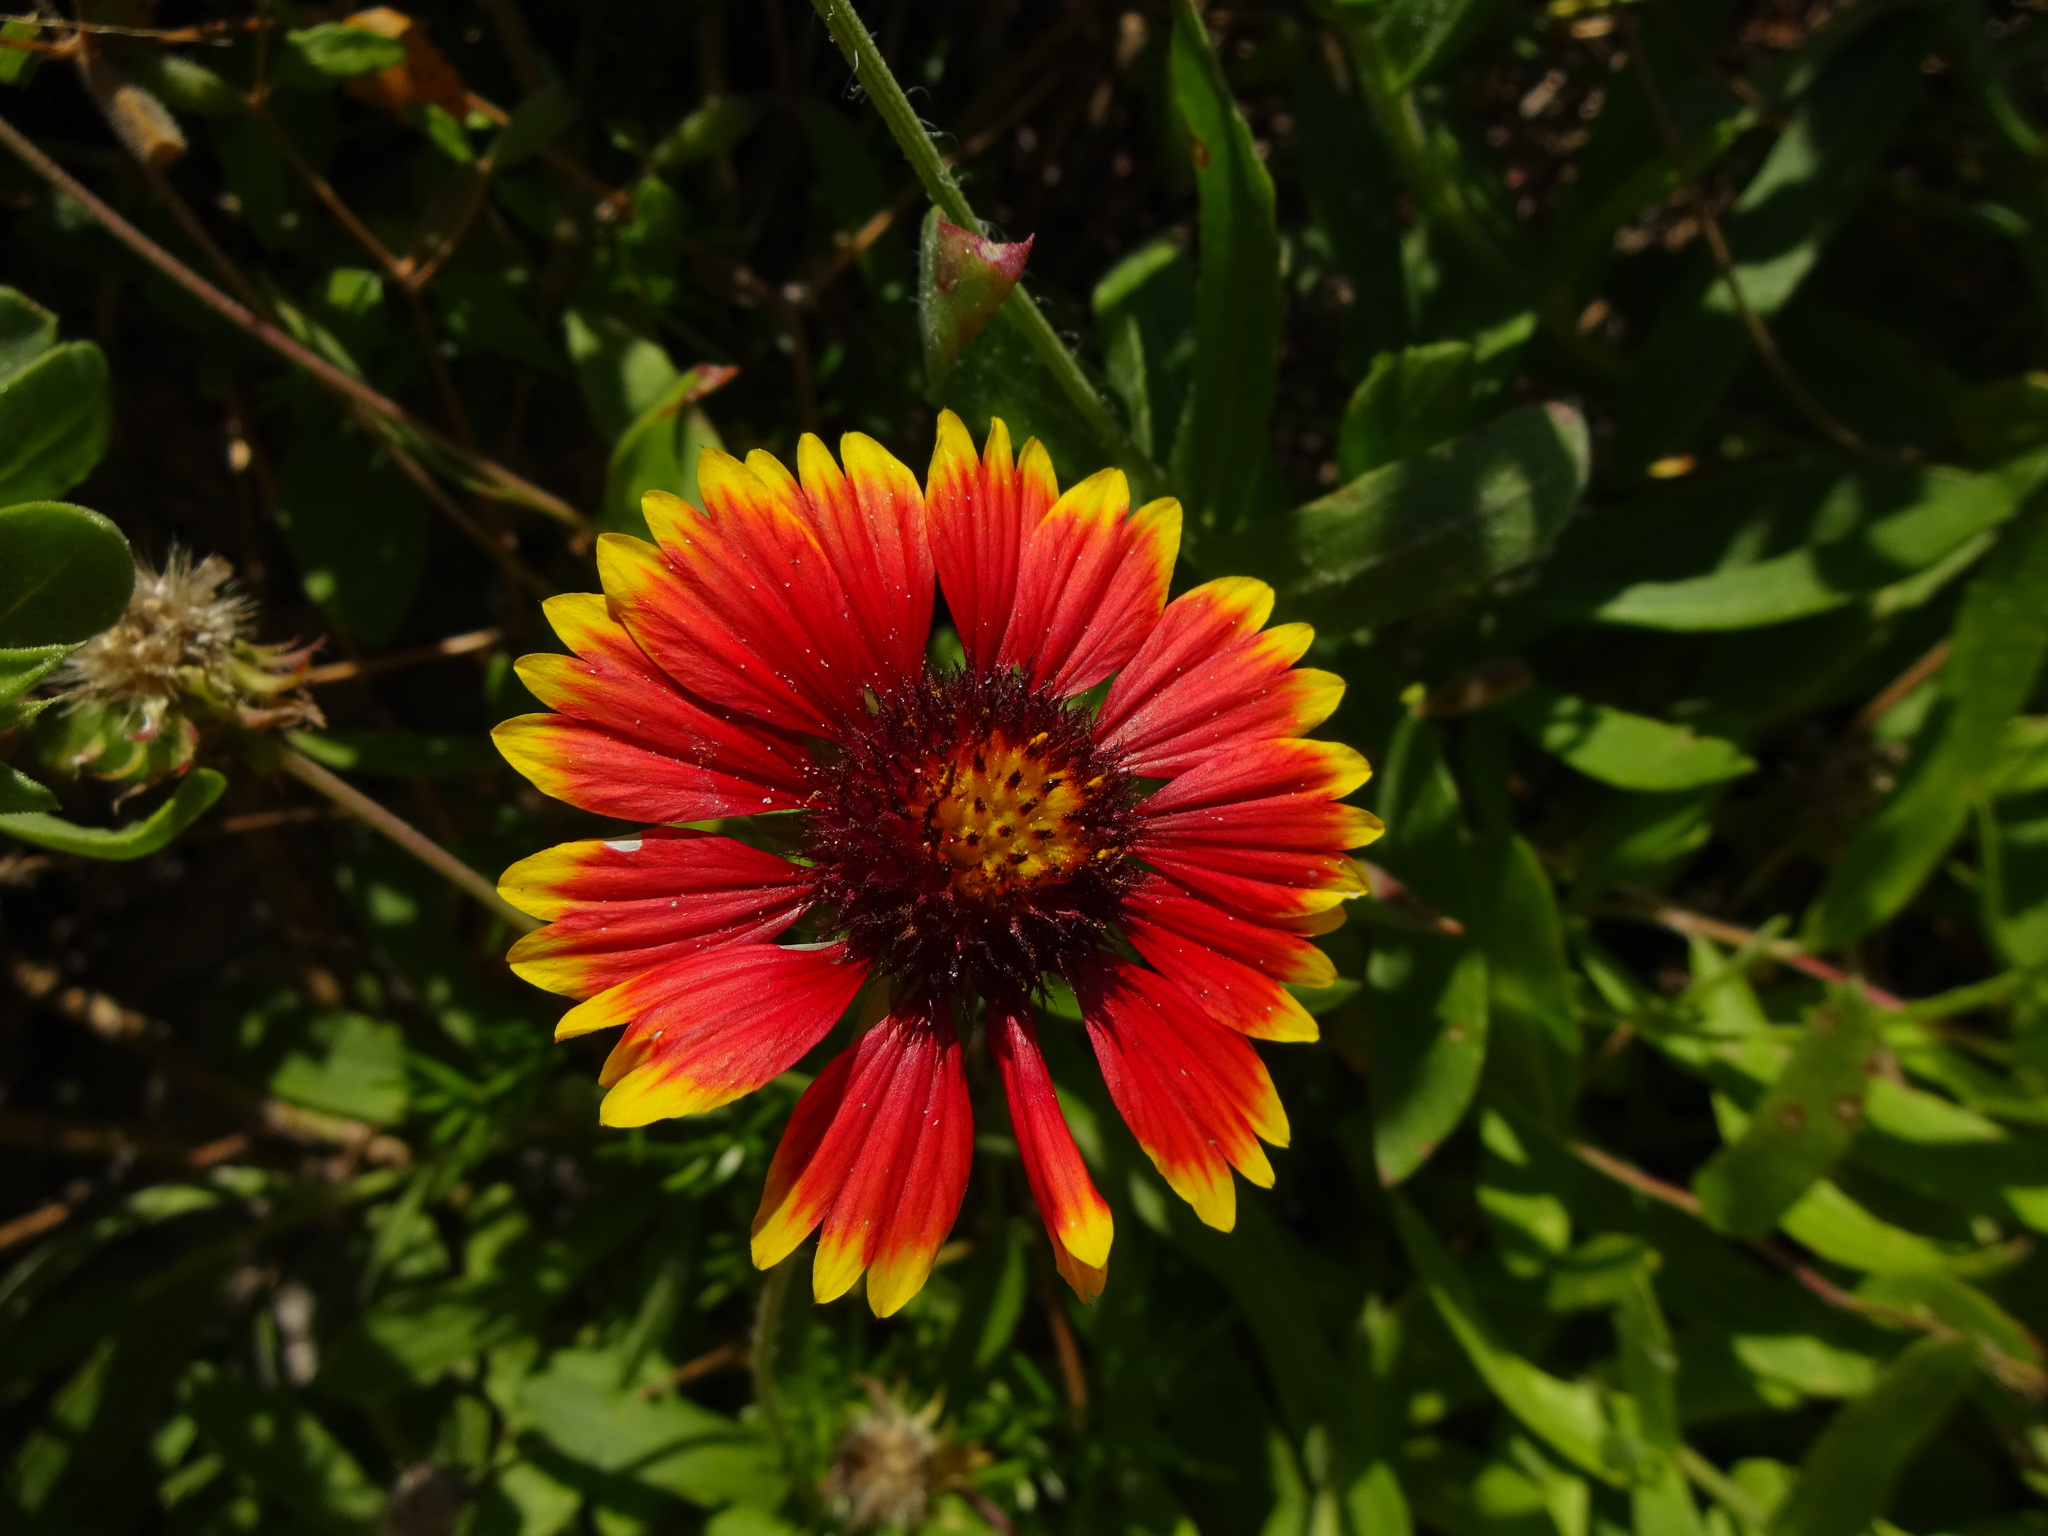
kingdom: Plantae
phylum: Tracheophyta
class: Magnoliopsida
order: Asterales
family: Asteraceae
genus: Gaillardia
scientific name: Gaillardia pulchella
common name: Firewheel
